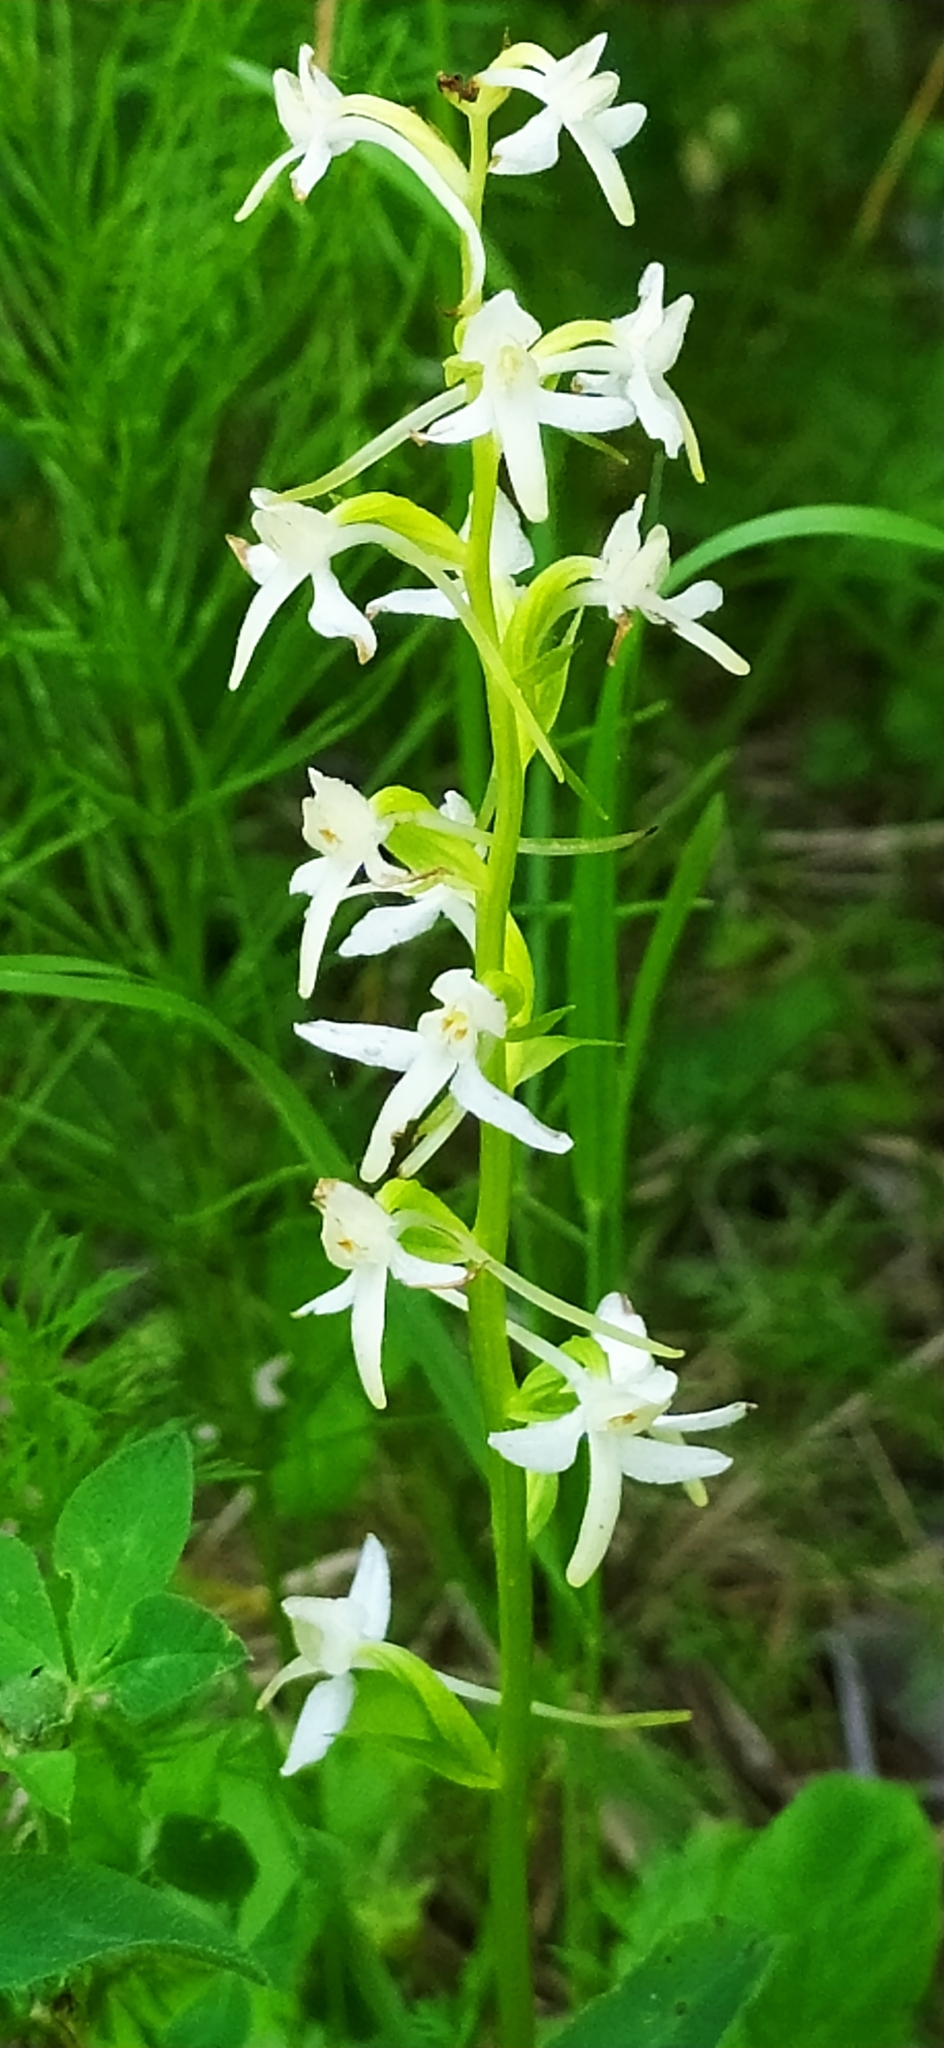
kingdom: Plantae
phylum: Tracheophyta
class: Liliopsida
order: Asparagales
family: Orchidaceae
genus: Platanthera
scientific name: Platanthera bifolia
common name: Lesser butterfly-orchid
